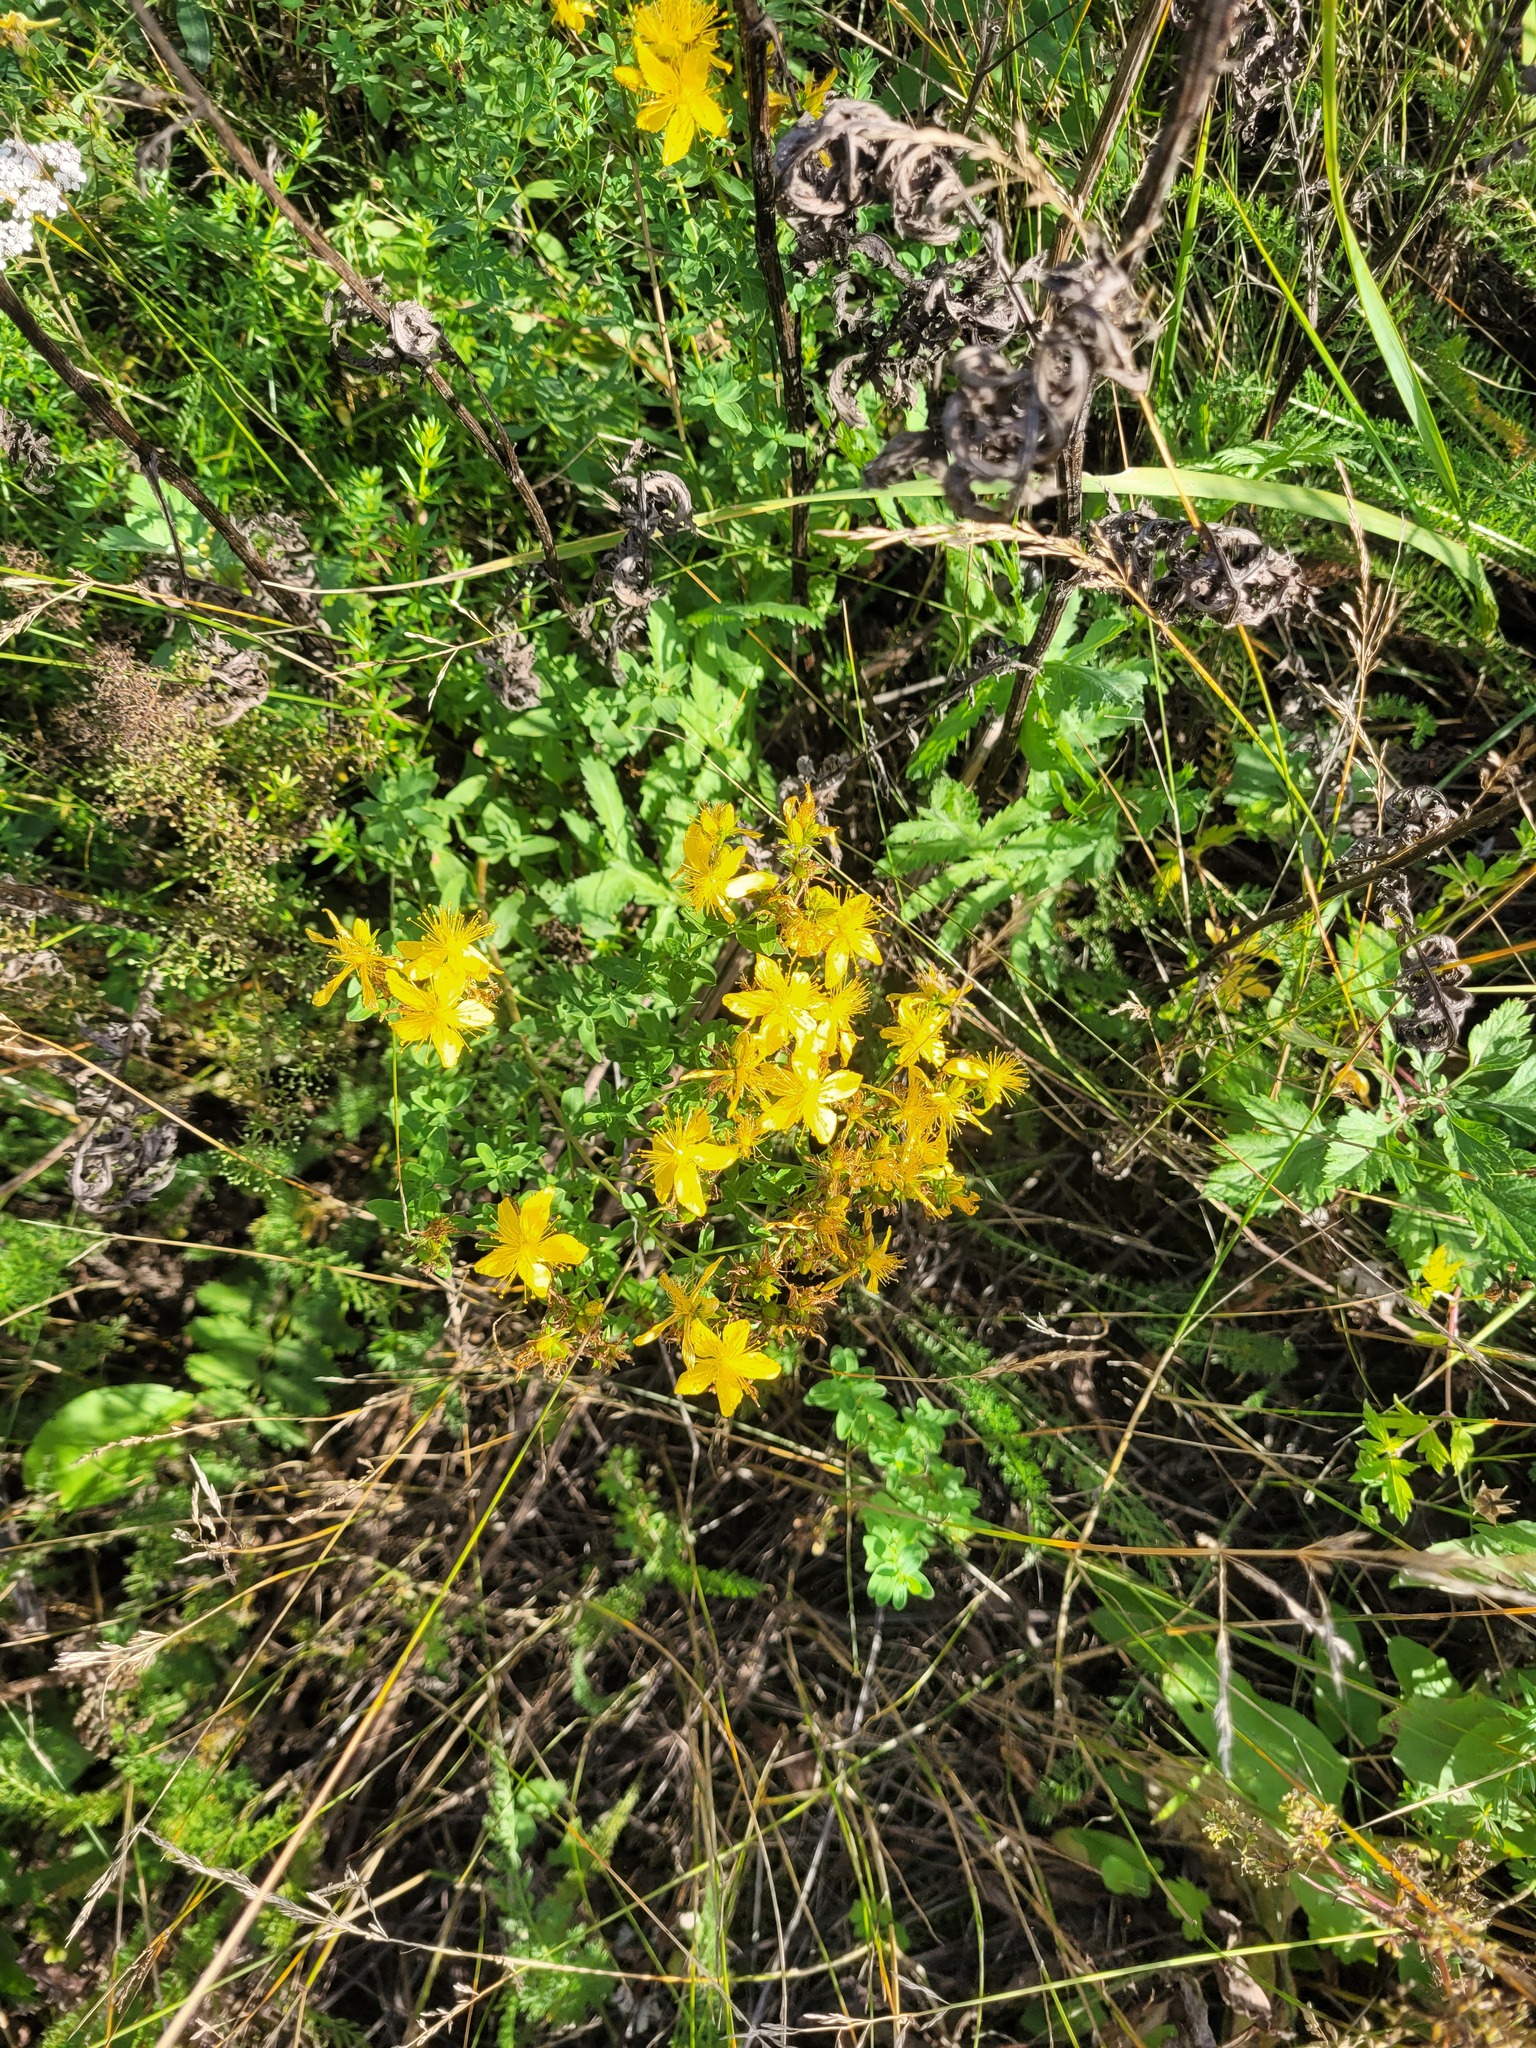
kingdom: Plantae
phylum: Tracheophyta
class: Magnoliopsida
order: Malpighiales
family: Hypericaceae
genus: Hypericum
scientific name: Hypericum perforatum
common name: Common st. johnswort
